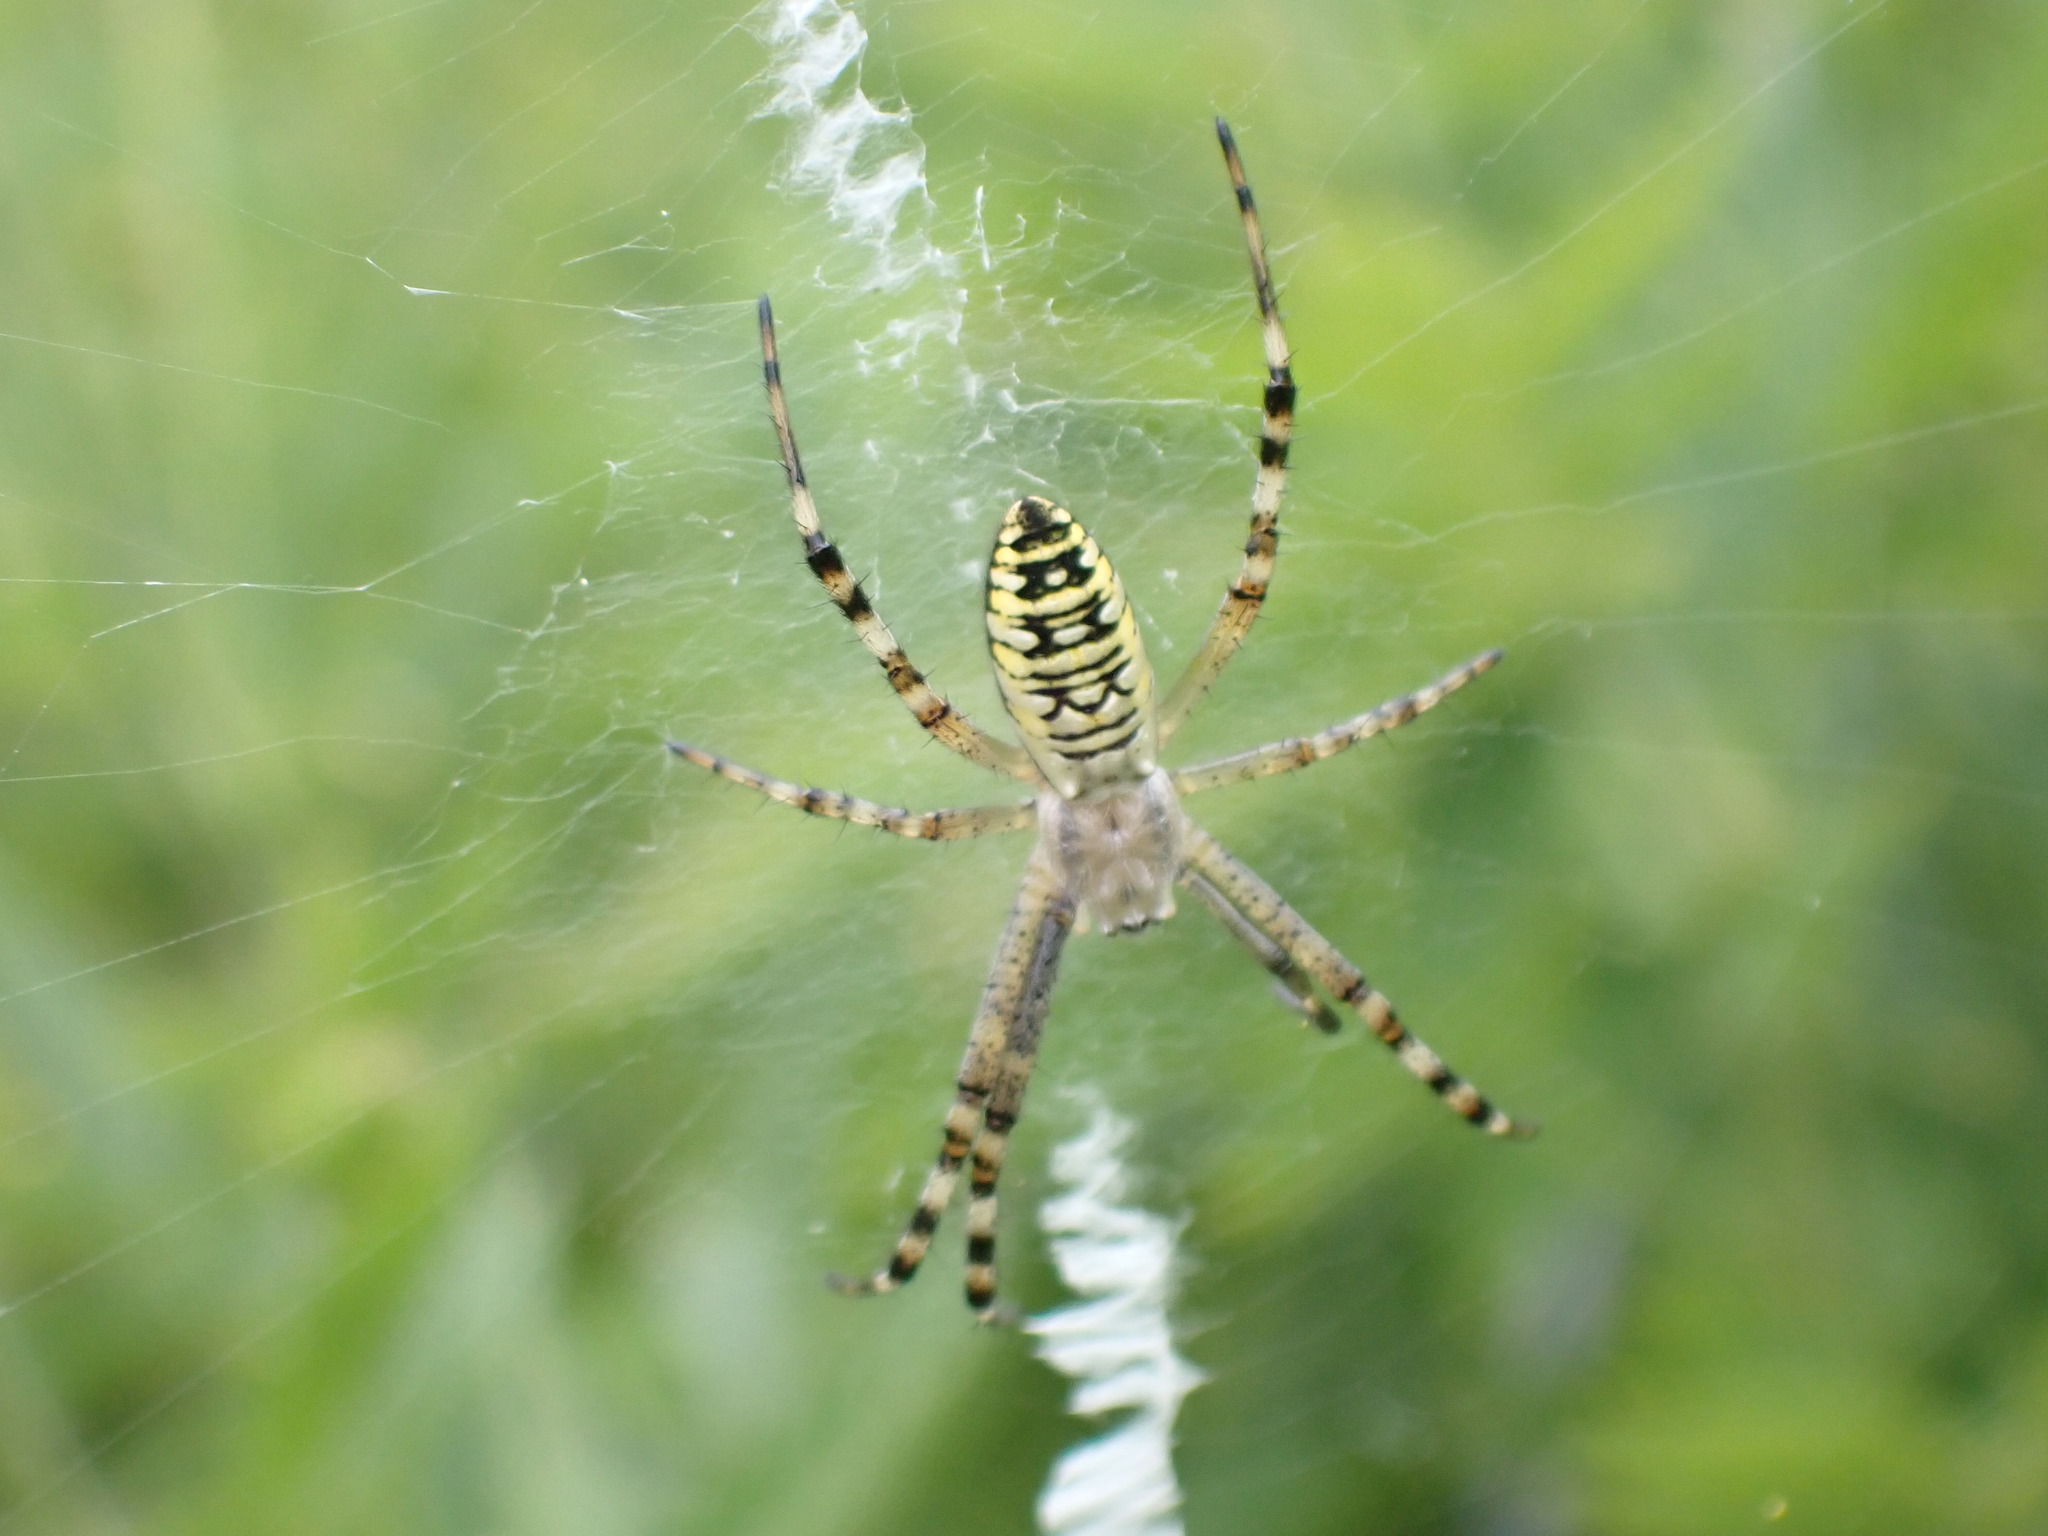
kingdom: Animalia
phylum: Arthropoda
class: Arachnida
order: Araneae
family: Araneidae
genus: Argiope
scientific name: Argiope bruennichi
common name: Wasp spider
